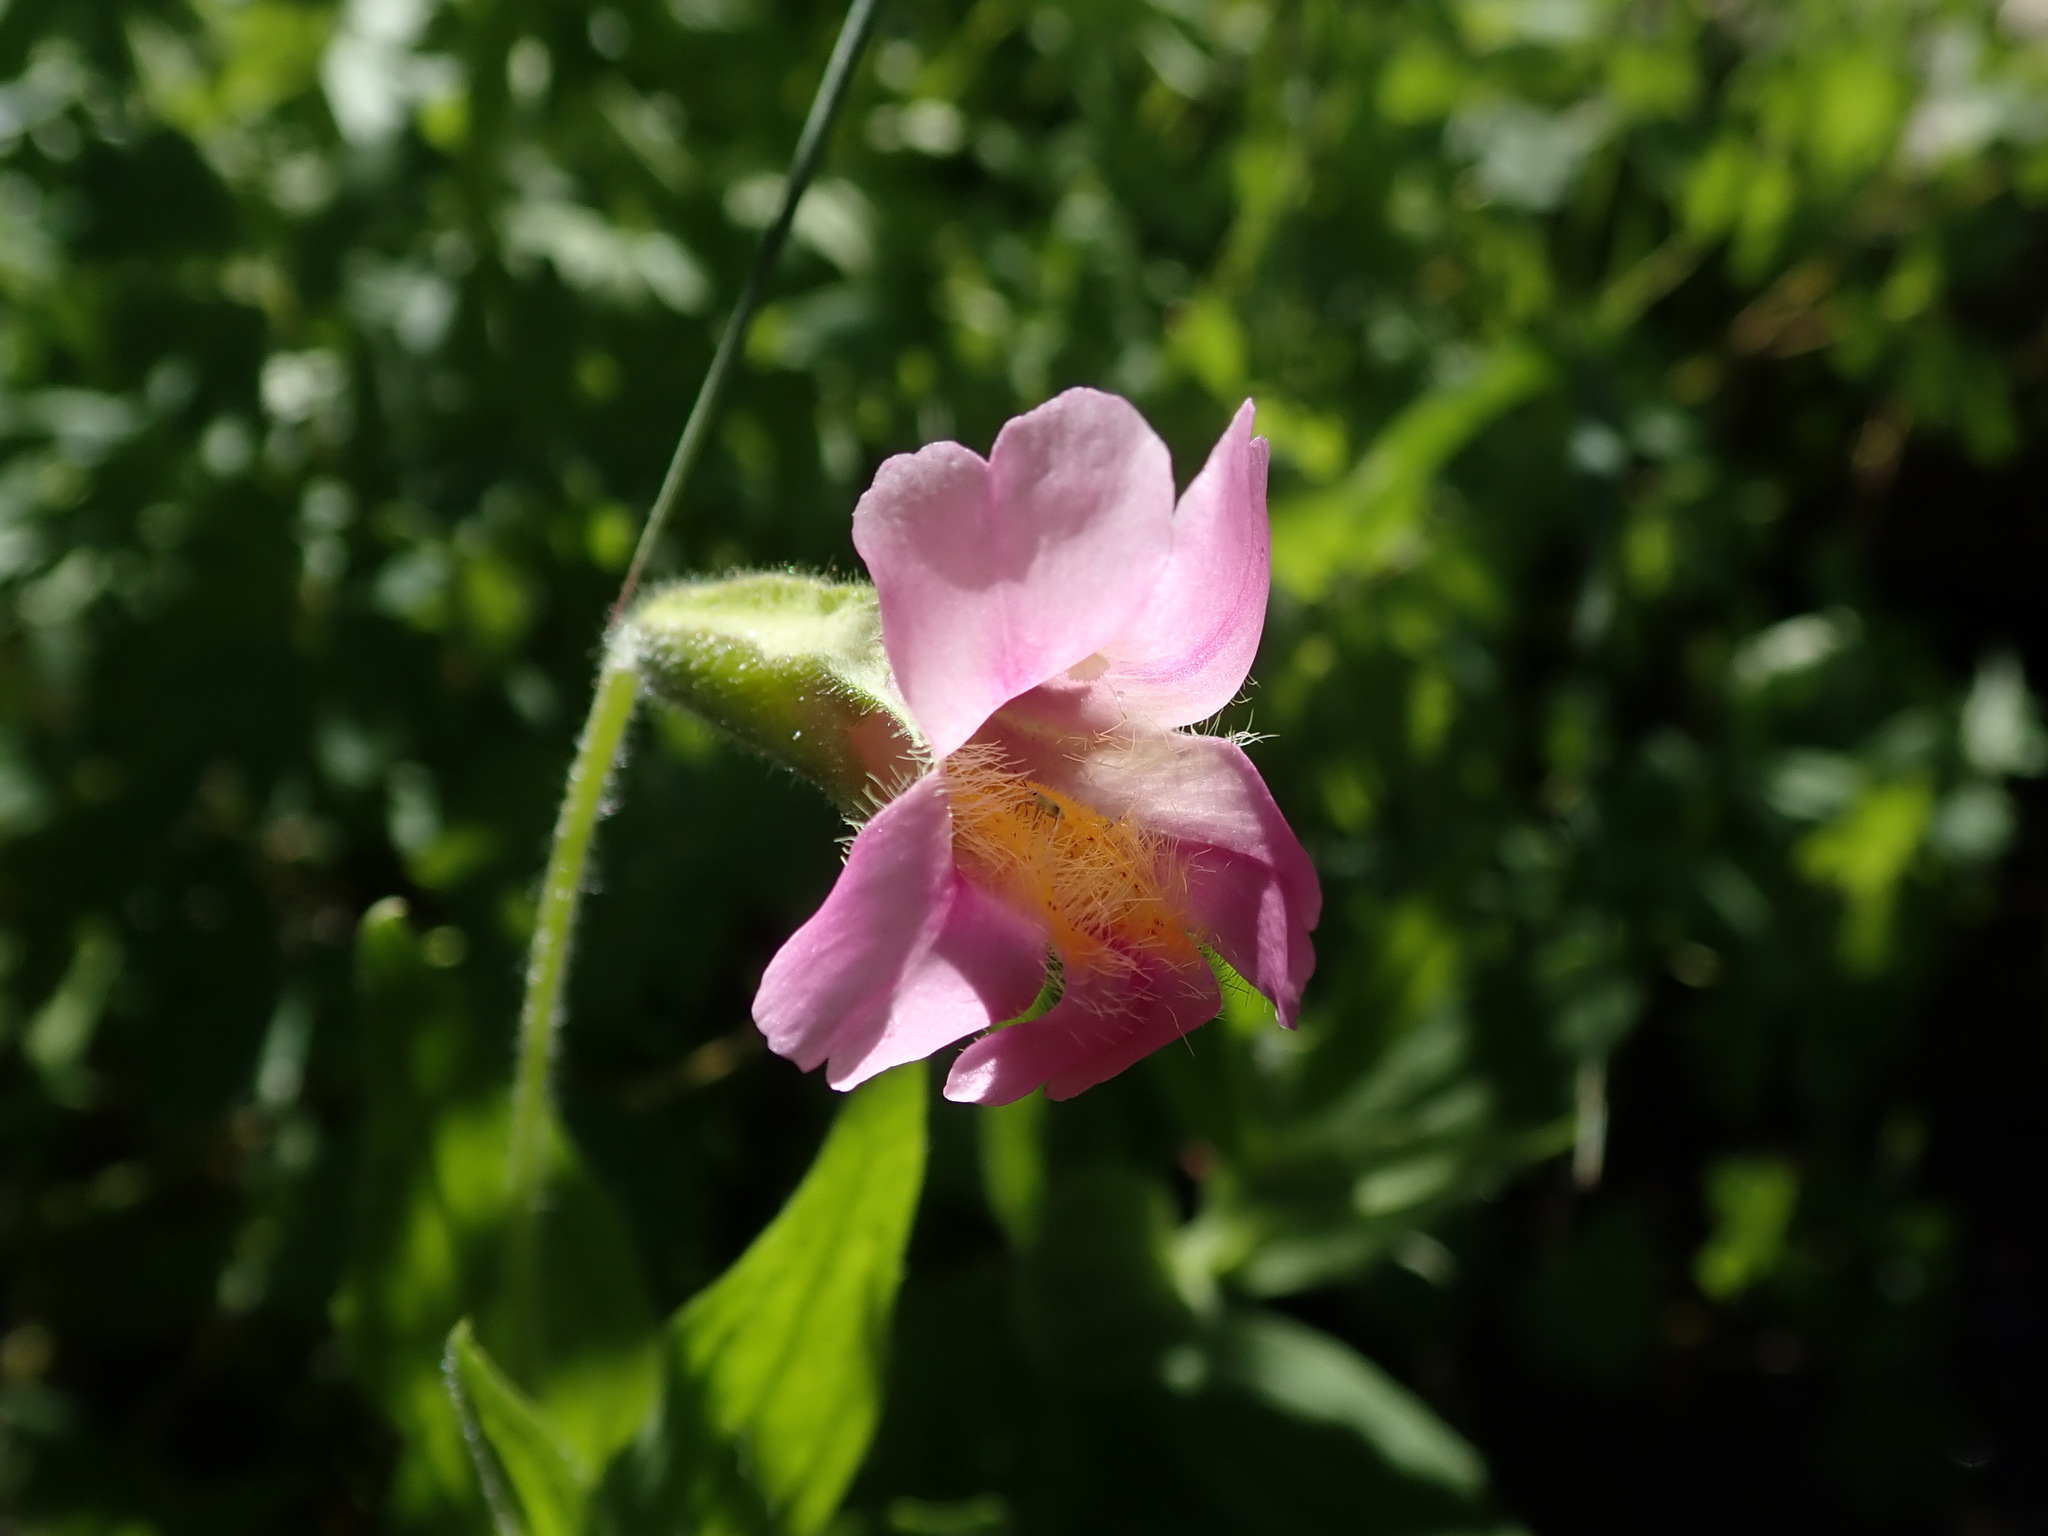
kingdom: Plantae
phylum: Tracheophyta
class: Magnoliopsida
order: Lamiales
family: Phrymaceae
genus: Erythranthe
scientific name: Erythranthe erubescens
